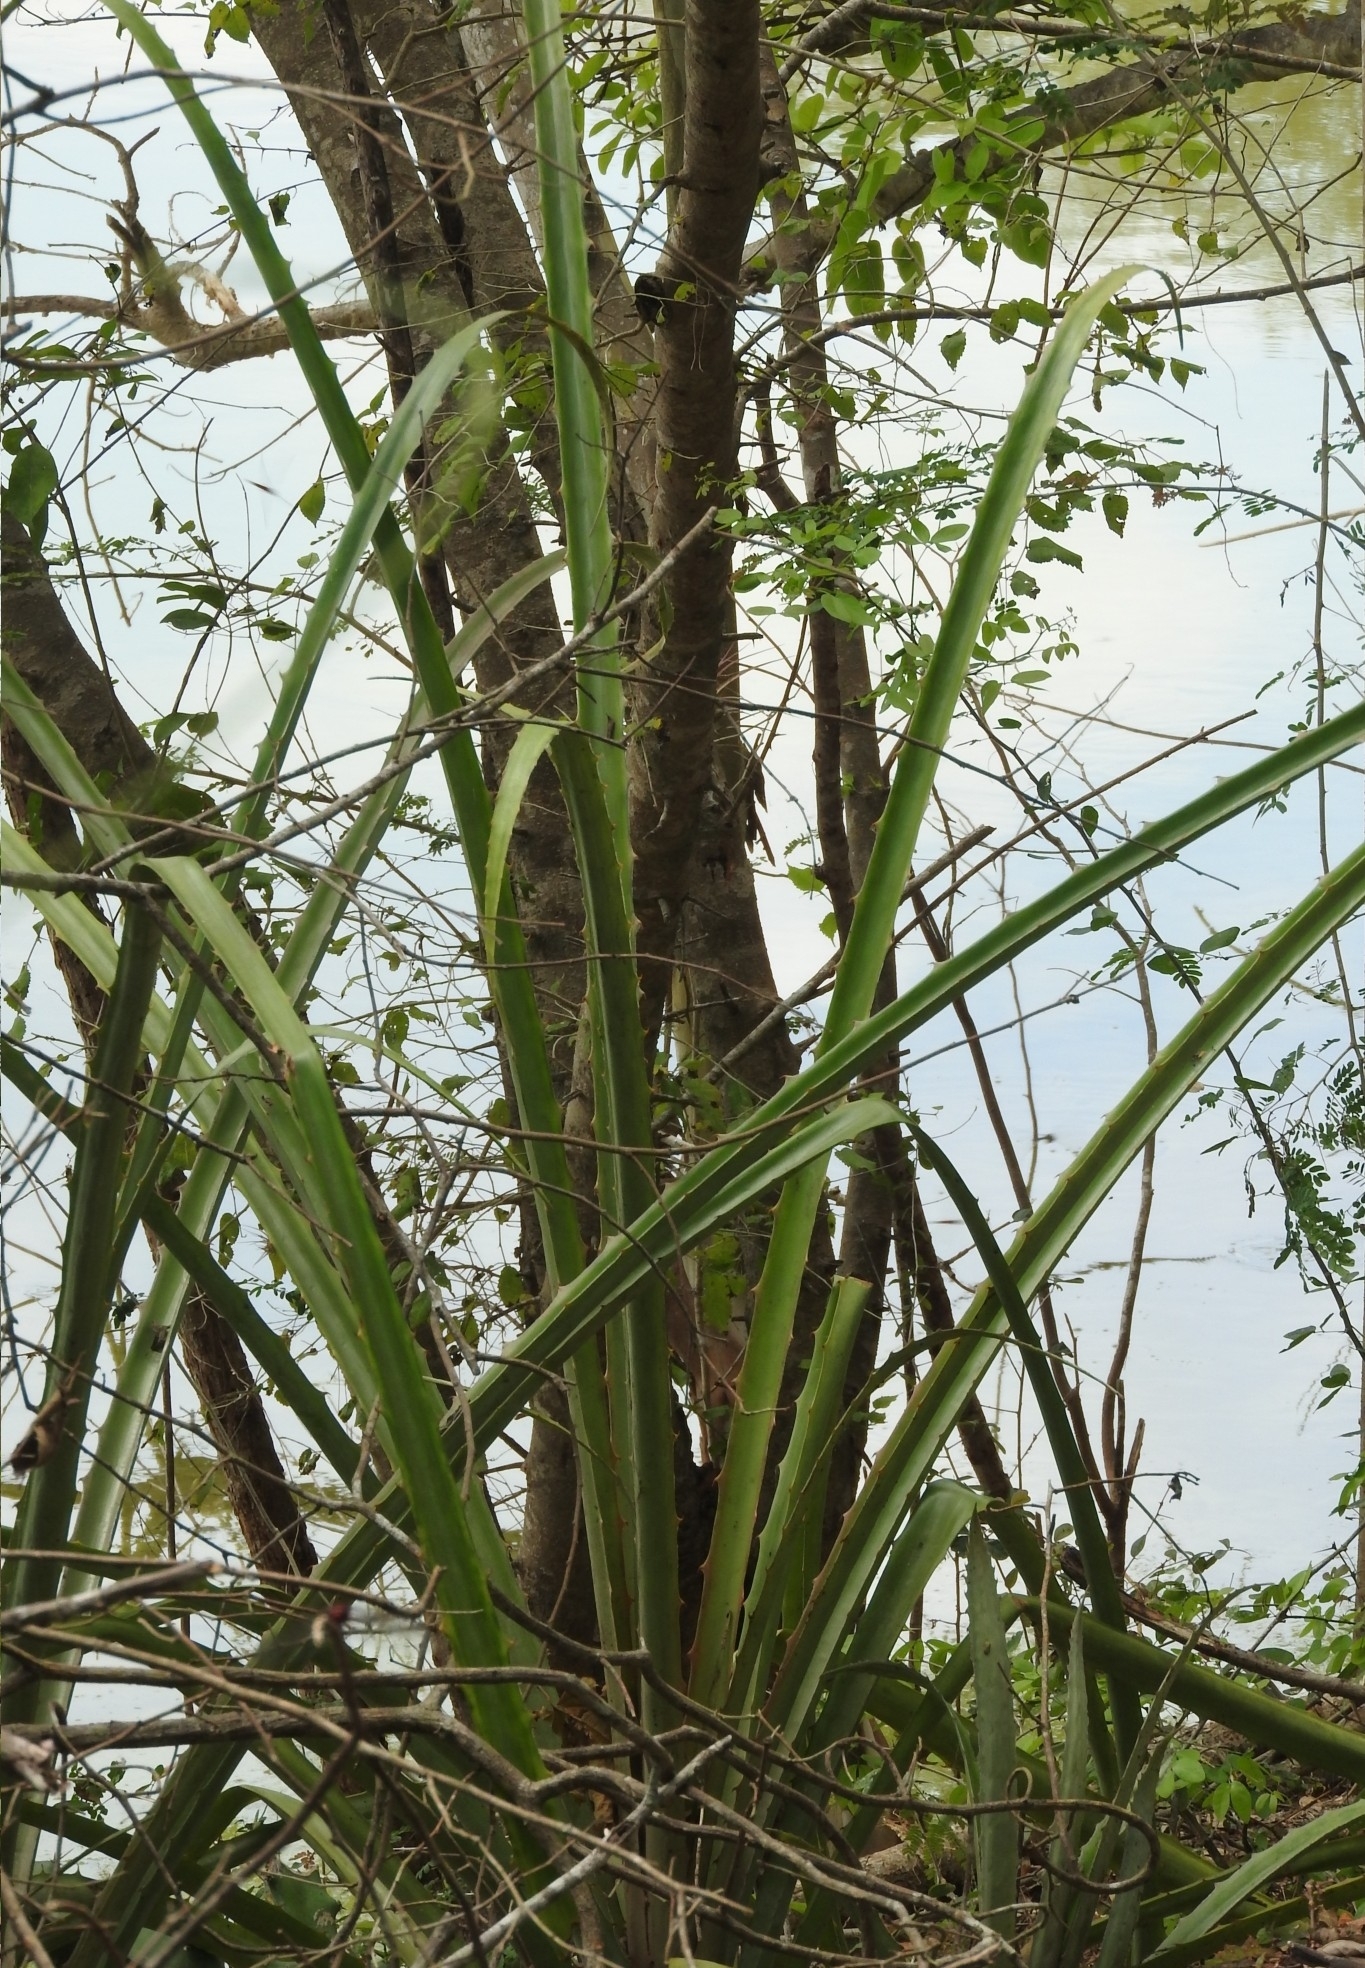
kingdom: Plantae
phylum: Tracheophyta
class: Liliopsida
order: Poales
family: Bromeliaceae
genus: Bromelia
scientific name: Bromelia karatas
